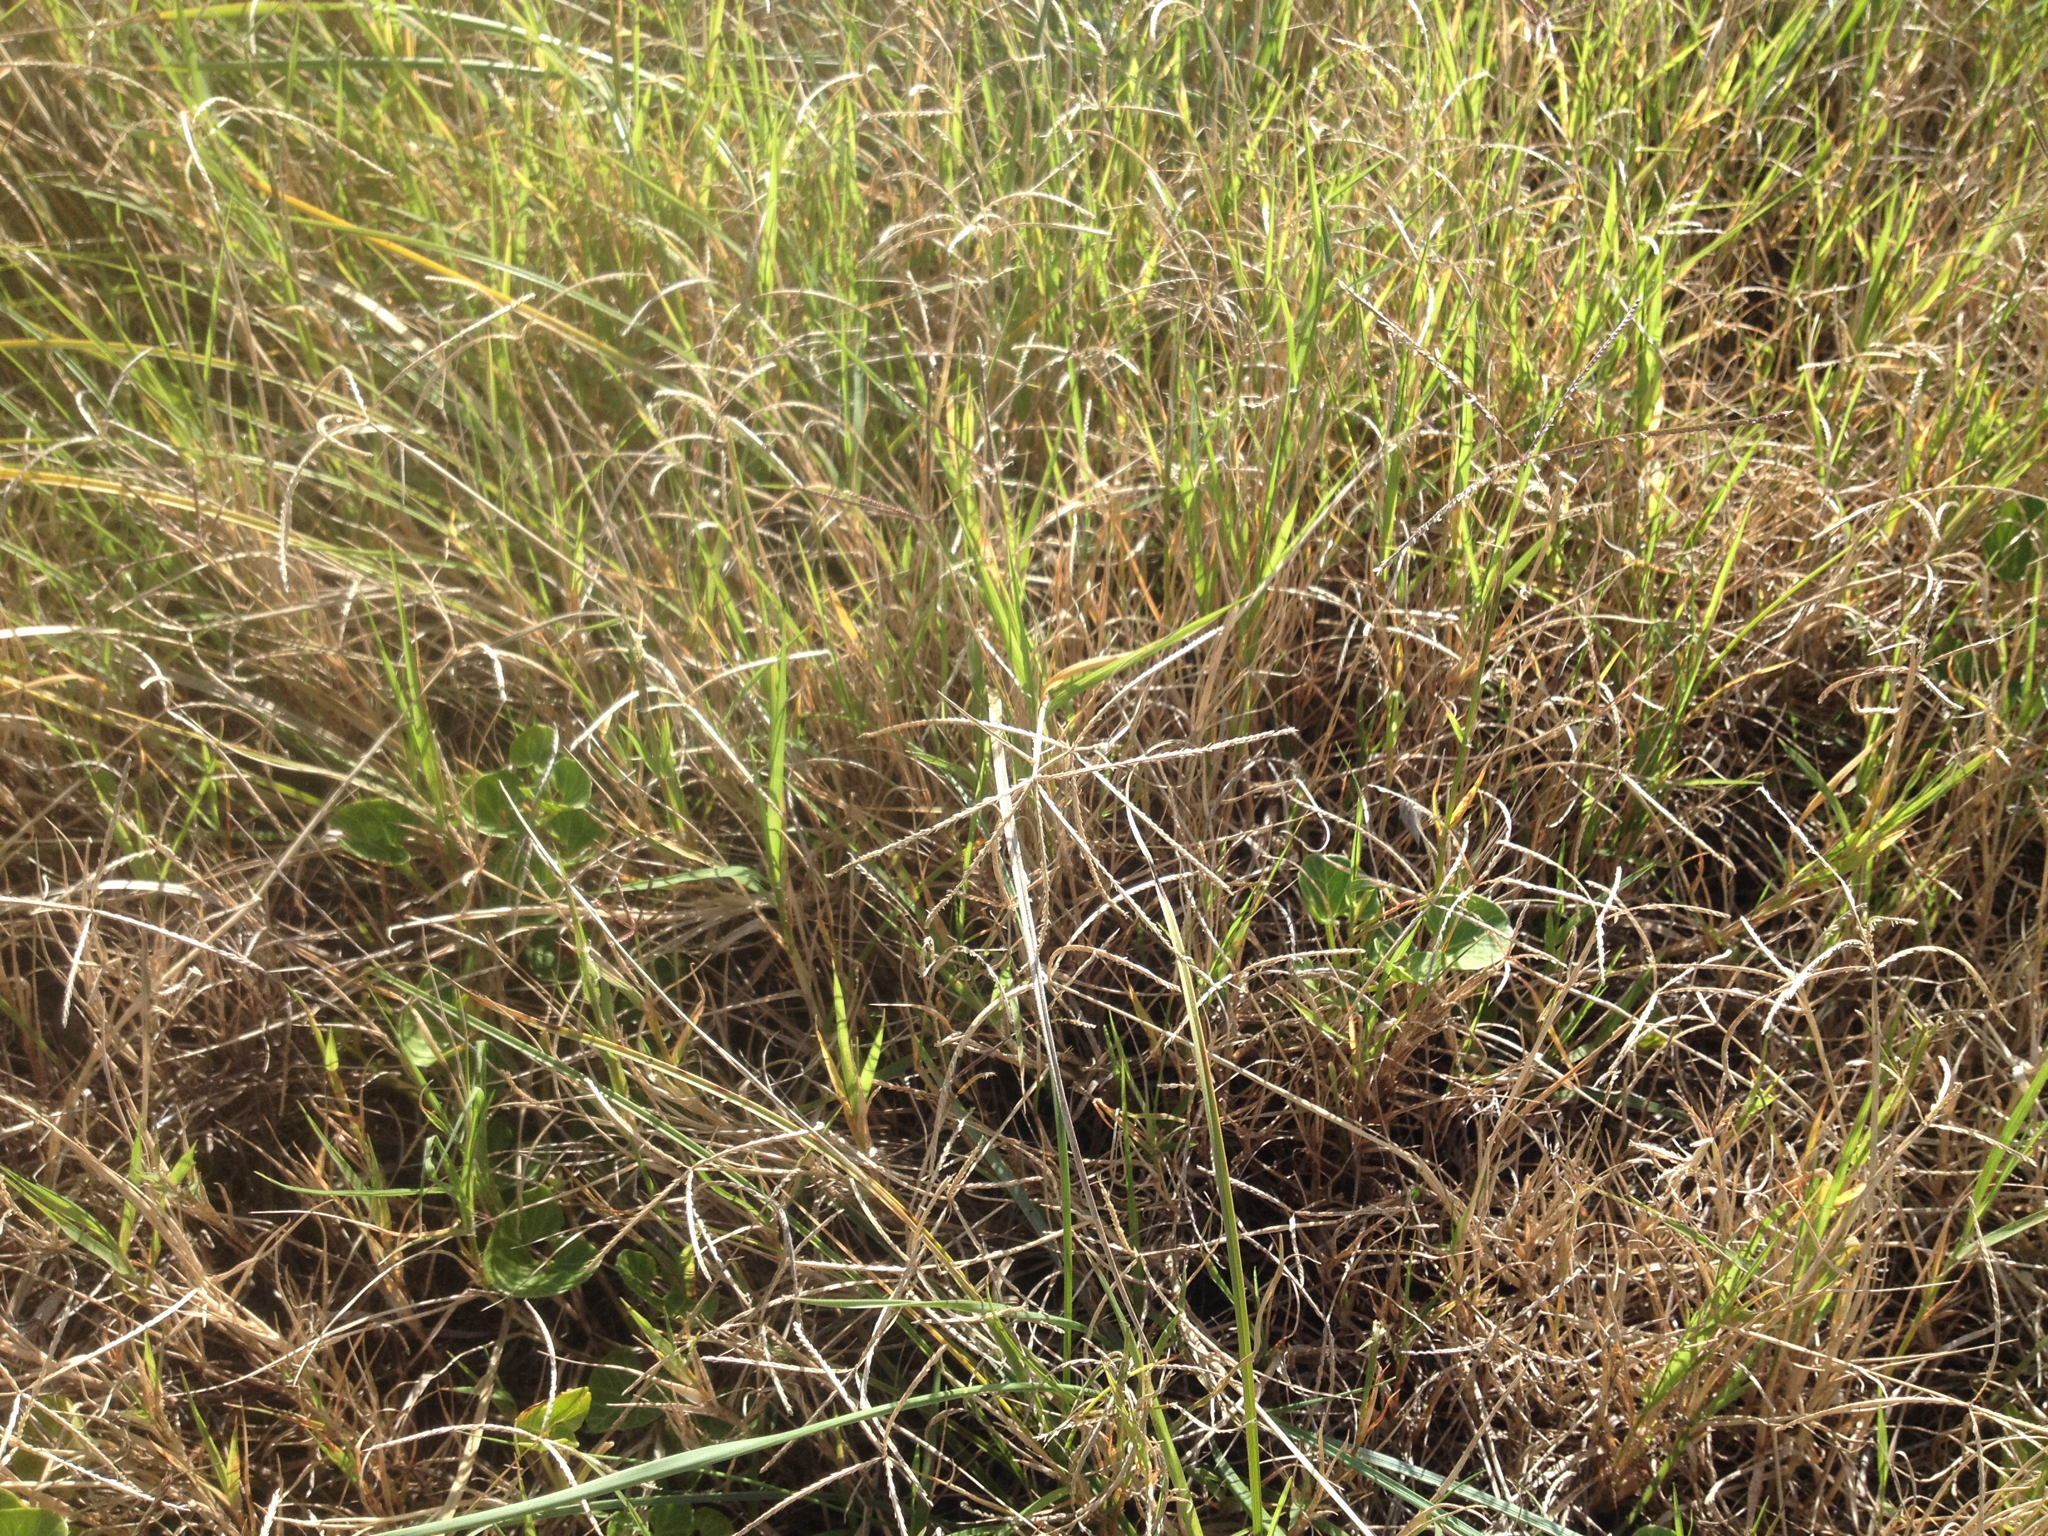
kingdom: Plantae
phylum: Tracheophyta
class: Liliopsida
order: Poales
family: Poaceae
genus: Paspalum
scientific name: Paspalum vaginatum
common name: Seashore paspalum
